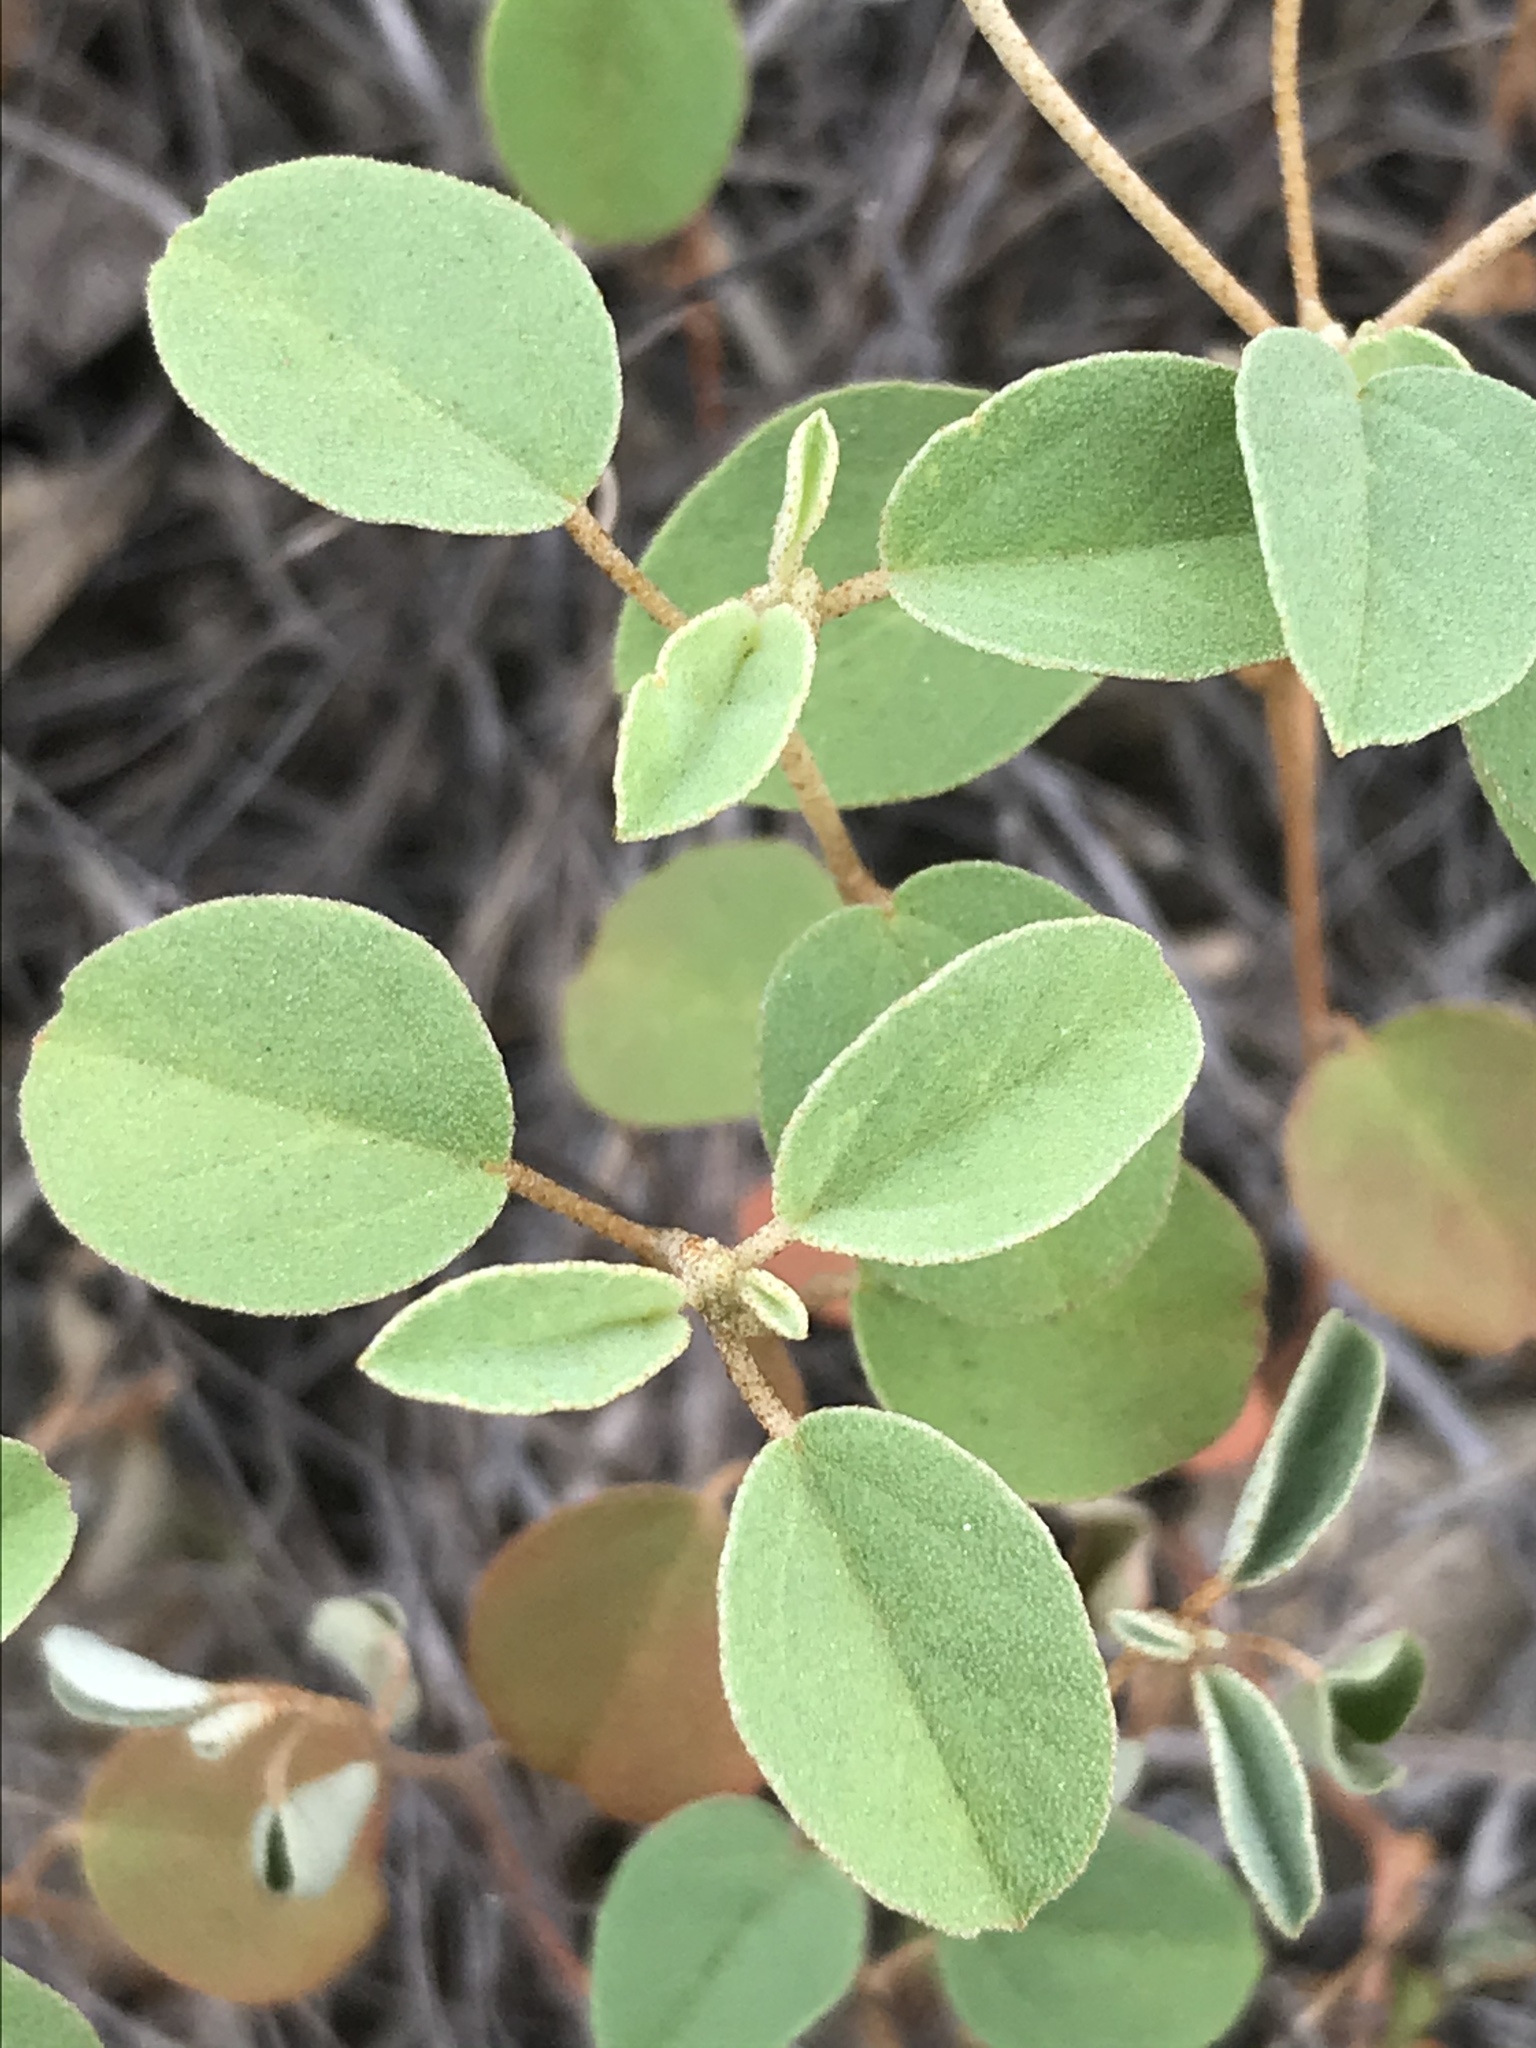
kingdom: Plantae
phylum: Tracheophyta
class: Magnoliopsida
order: Malpighiales
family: Euphorbiaceae
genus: Croton
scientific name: Croton monanthogynus
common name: One-seed croton
